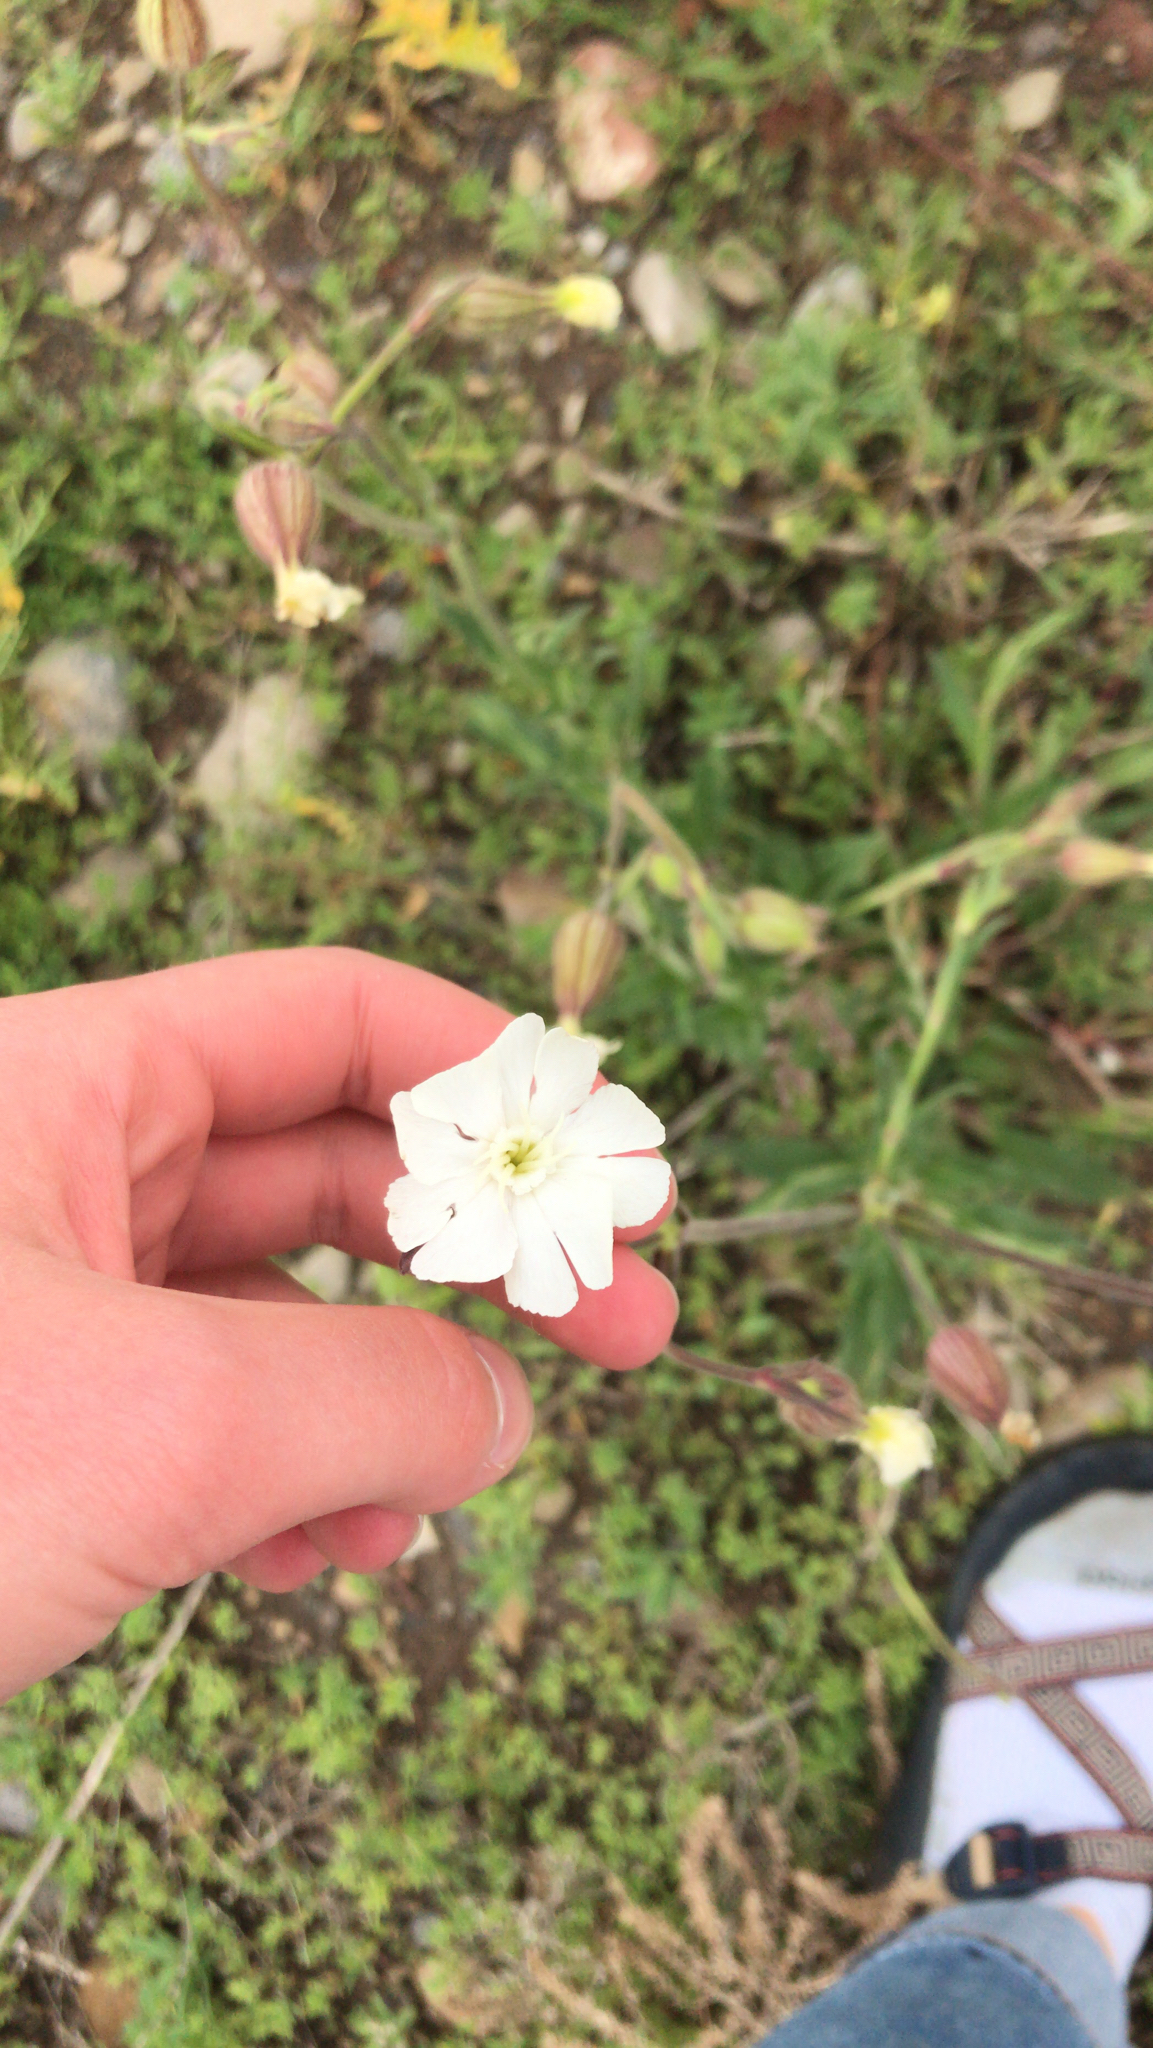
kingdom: Plantae
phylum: Tracheophyta
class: Magnoliopsida
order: Caryophyllales
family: Caryophyllaceae
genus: Silene
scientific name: Silene latifolia
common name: White campion
